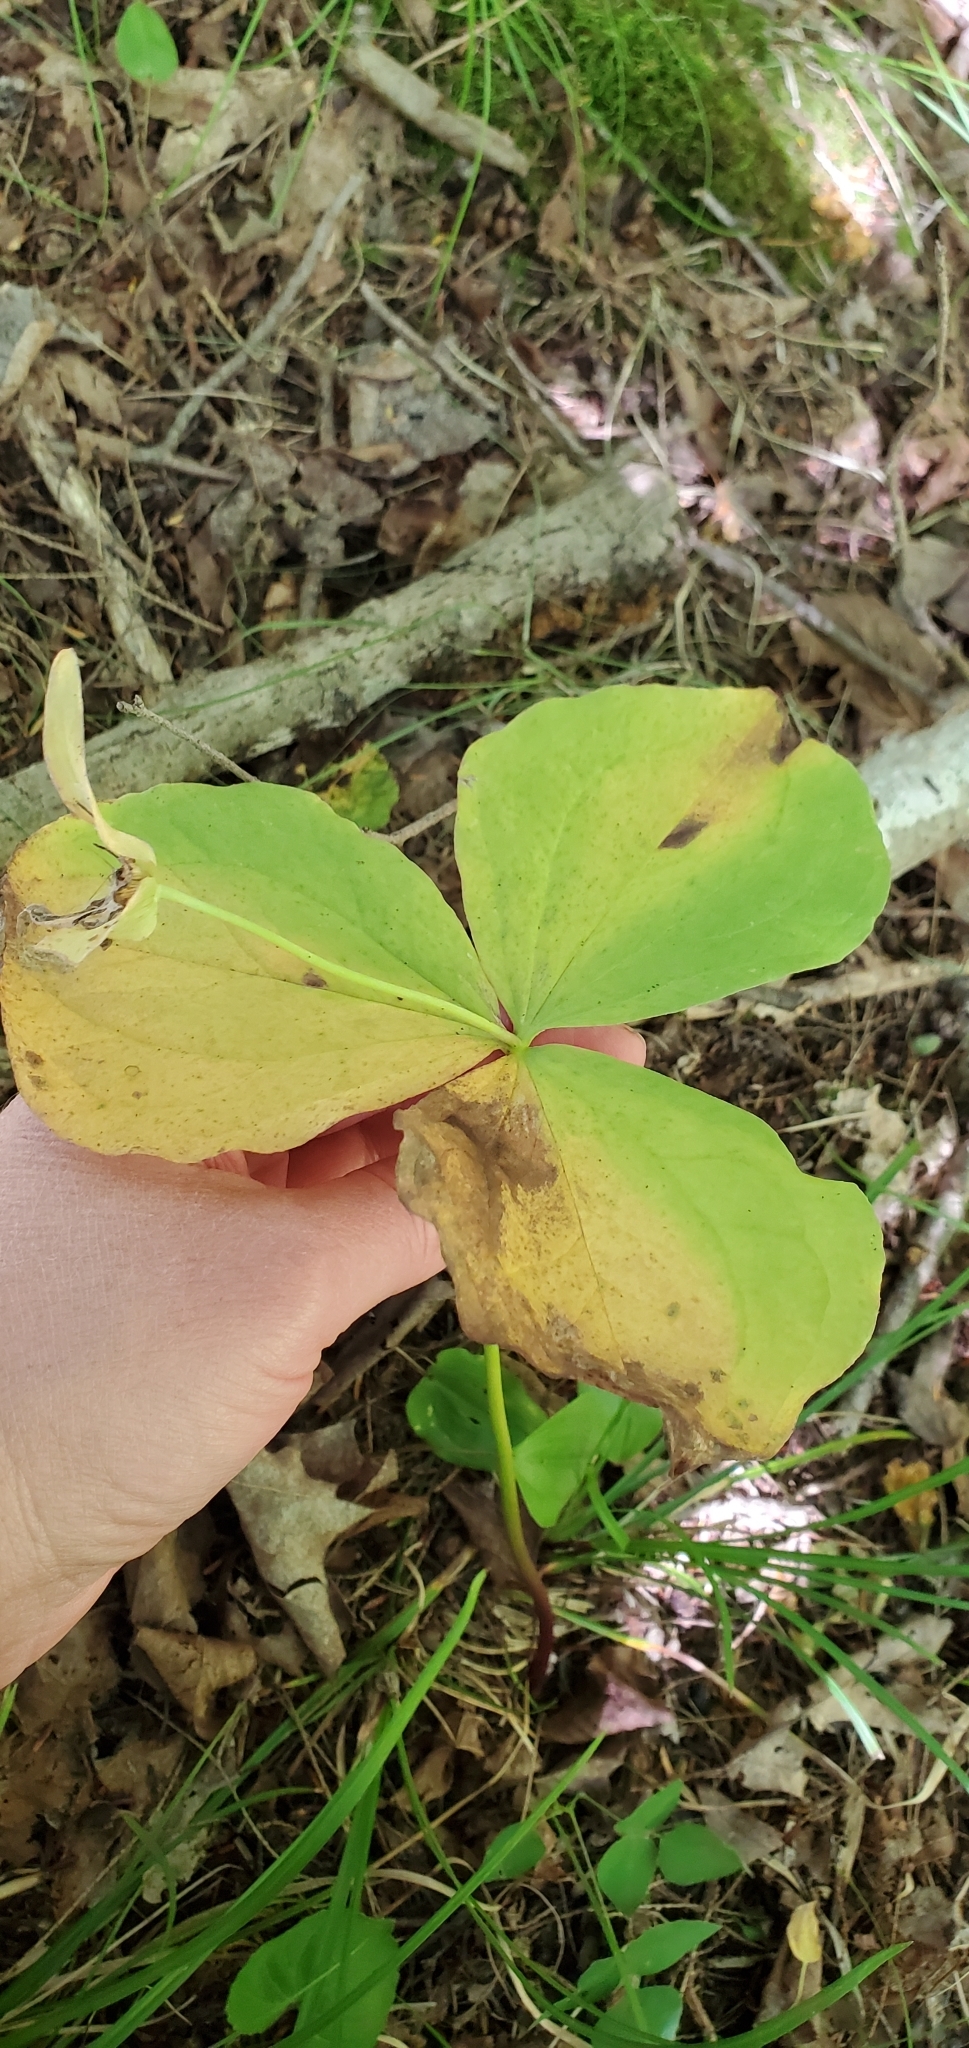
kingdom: Plantae
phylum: Tracheophyta
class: Liliopsida
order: Liliales
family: Melanthiaceae
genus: Trillium
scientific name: Trillium grandiflorum
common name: Great white trillium
